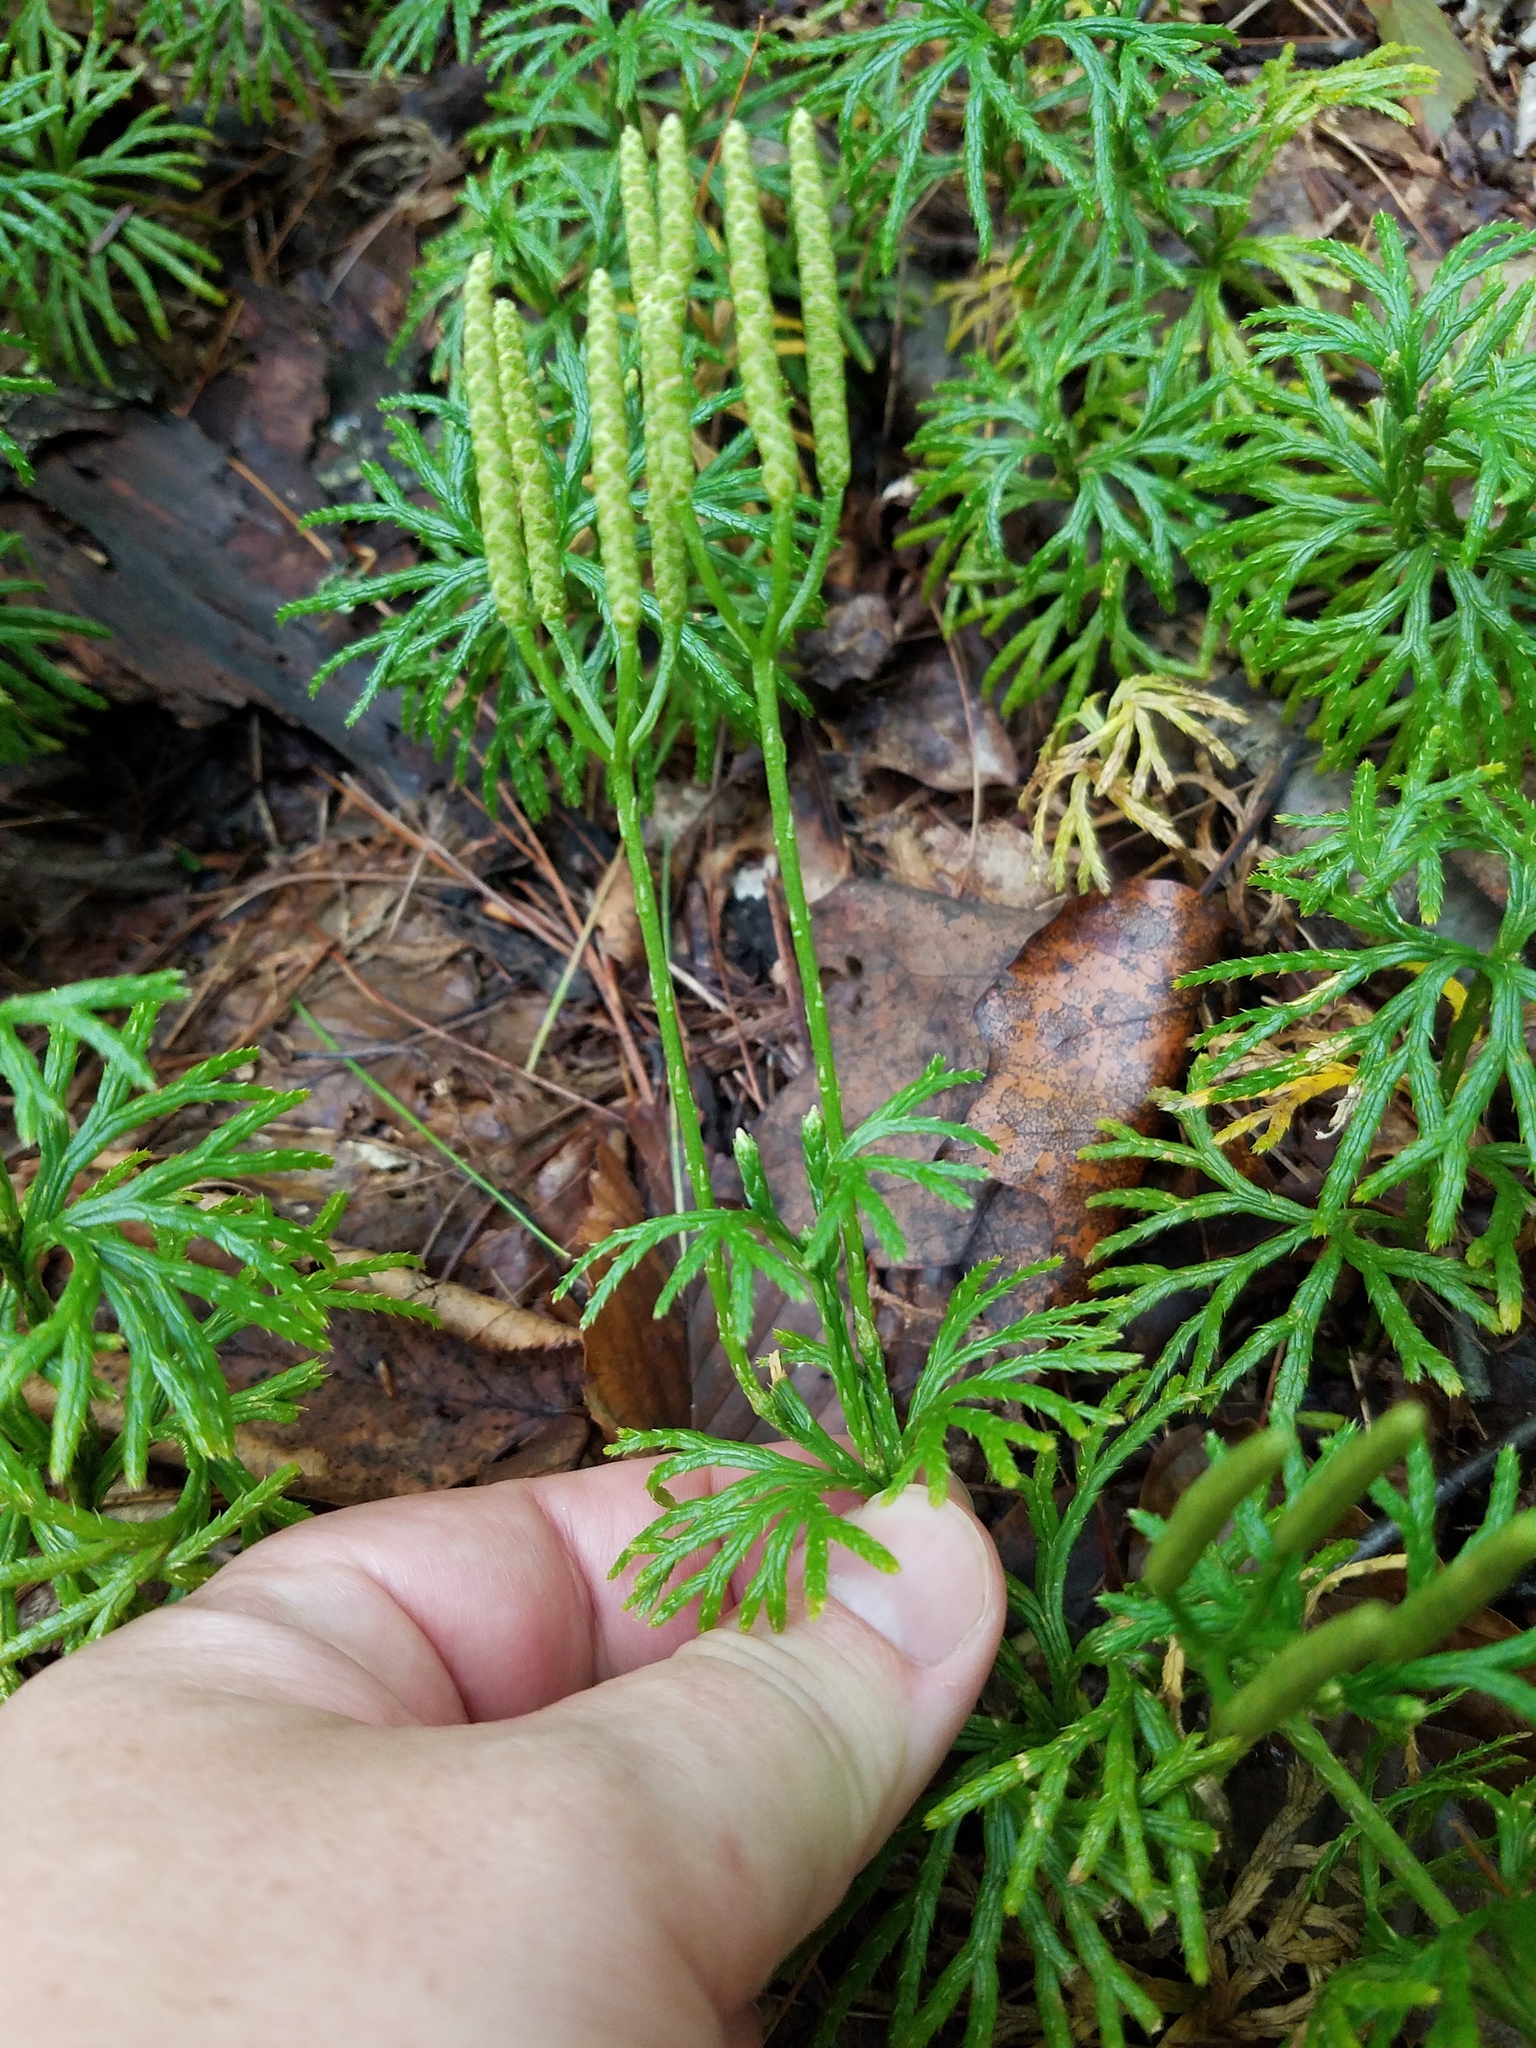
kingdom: Plantae
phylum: Tracheophyta
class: Lycopodiopsida
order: Lycopodiales
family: Lycopodiaceae
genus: Diphasiastrum
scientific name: Diphasiastrum digitatum
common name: Southern running-pine
